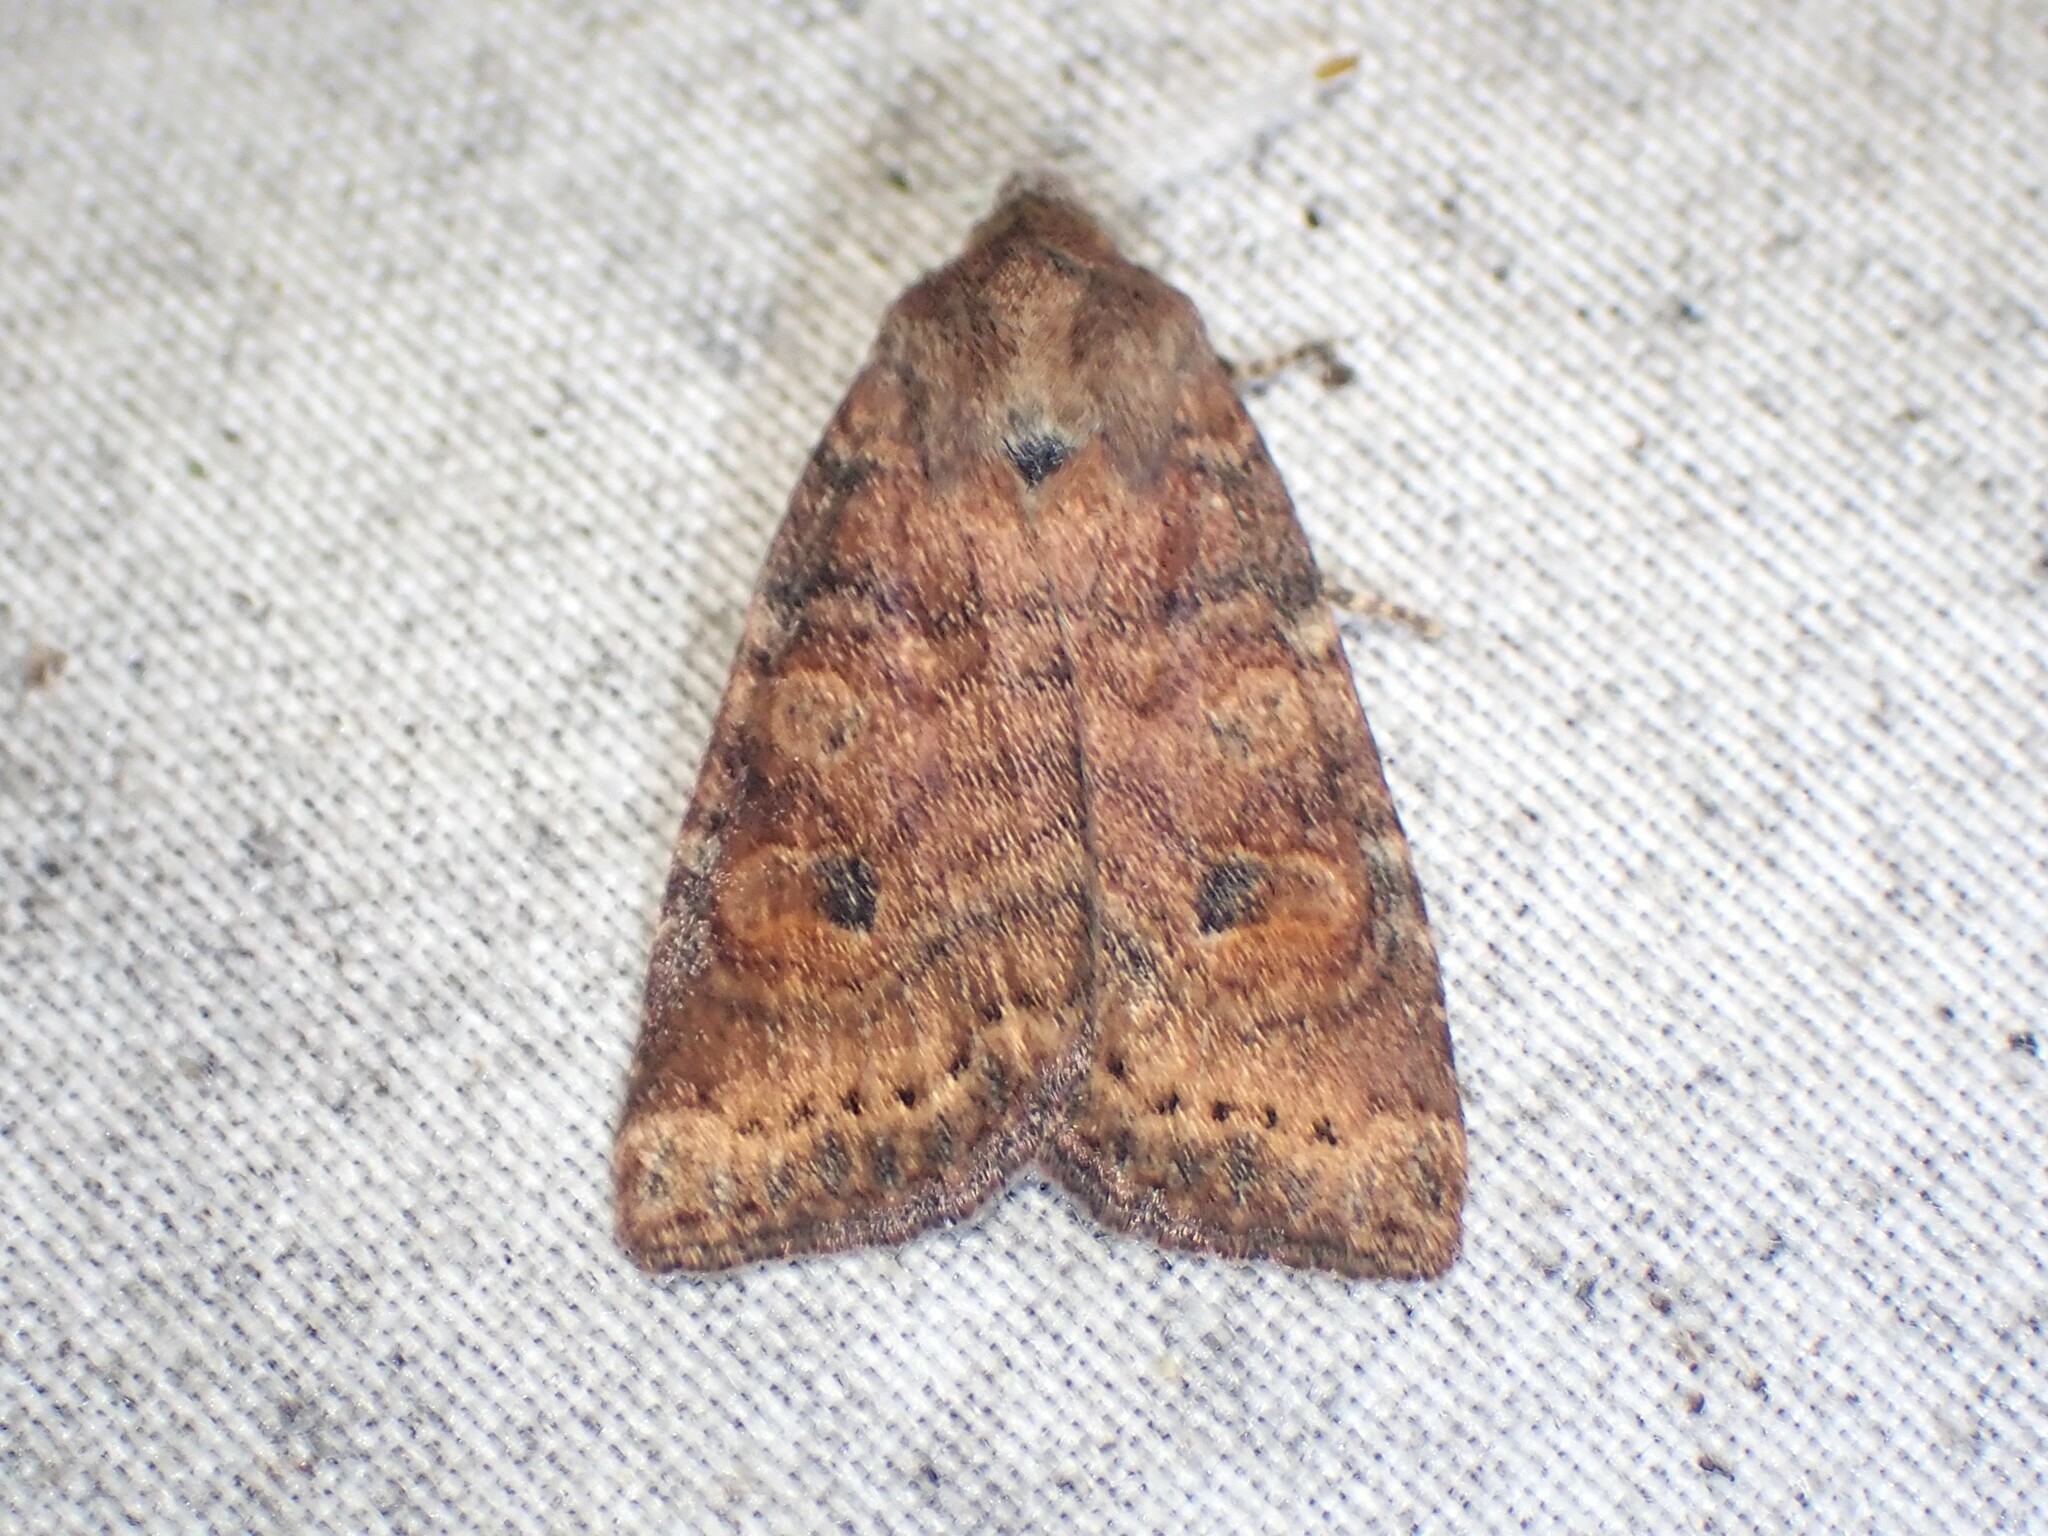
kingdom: Animalia
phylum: Arthropoda
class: Insecta
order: Lepidoptera
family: Noctuidae
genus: Anathix
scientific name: Anathix puta
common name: Puta sallow
